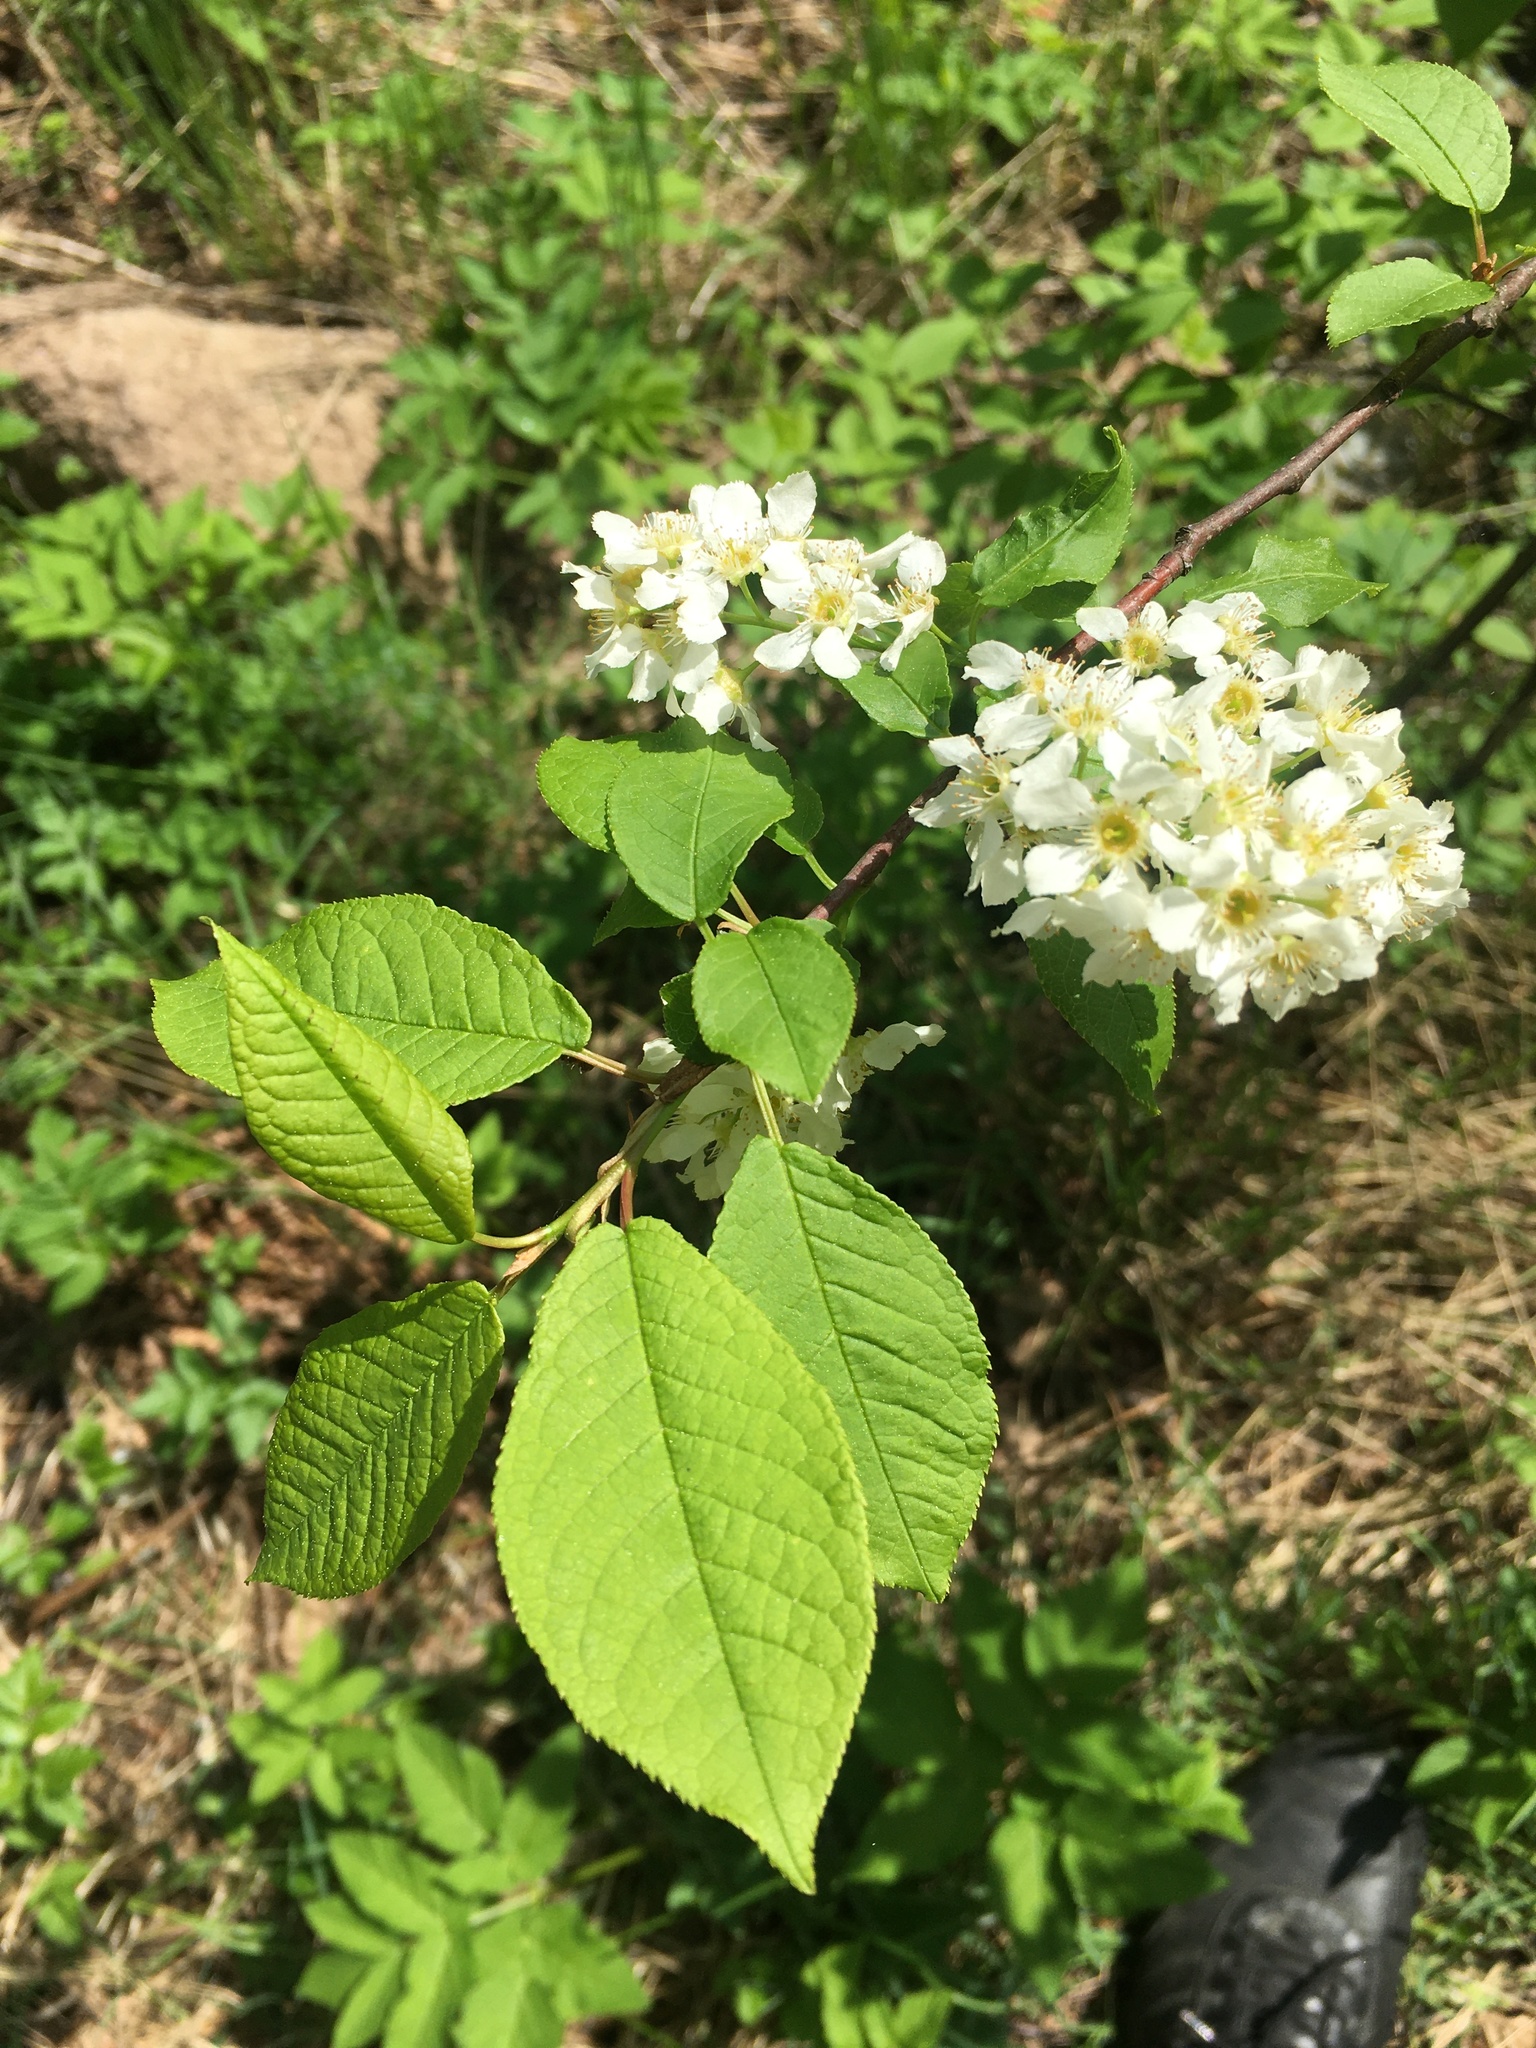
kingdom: Plantae
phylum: Tracheophyta
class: Magnoliopsida
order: Rosales
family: Rosaceae
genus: Prunus
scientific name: Prunus padus
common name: Bird cherry
